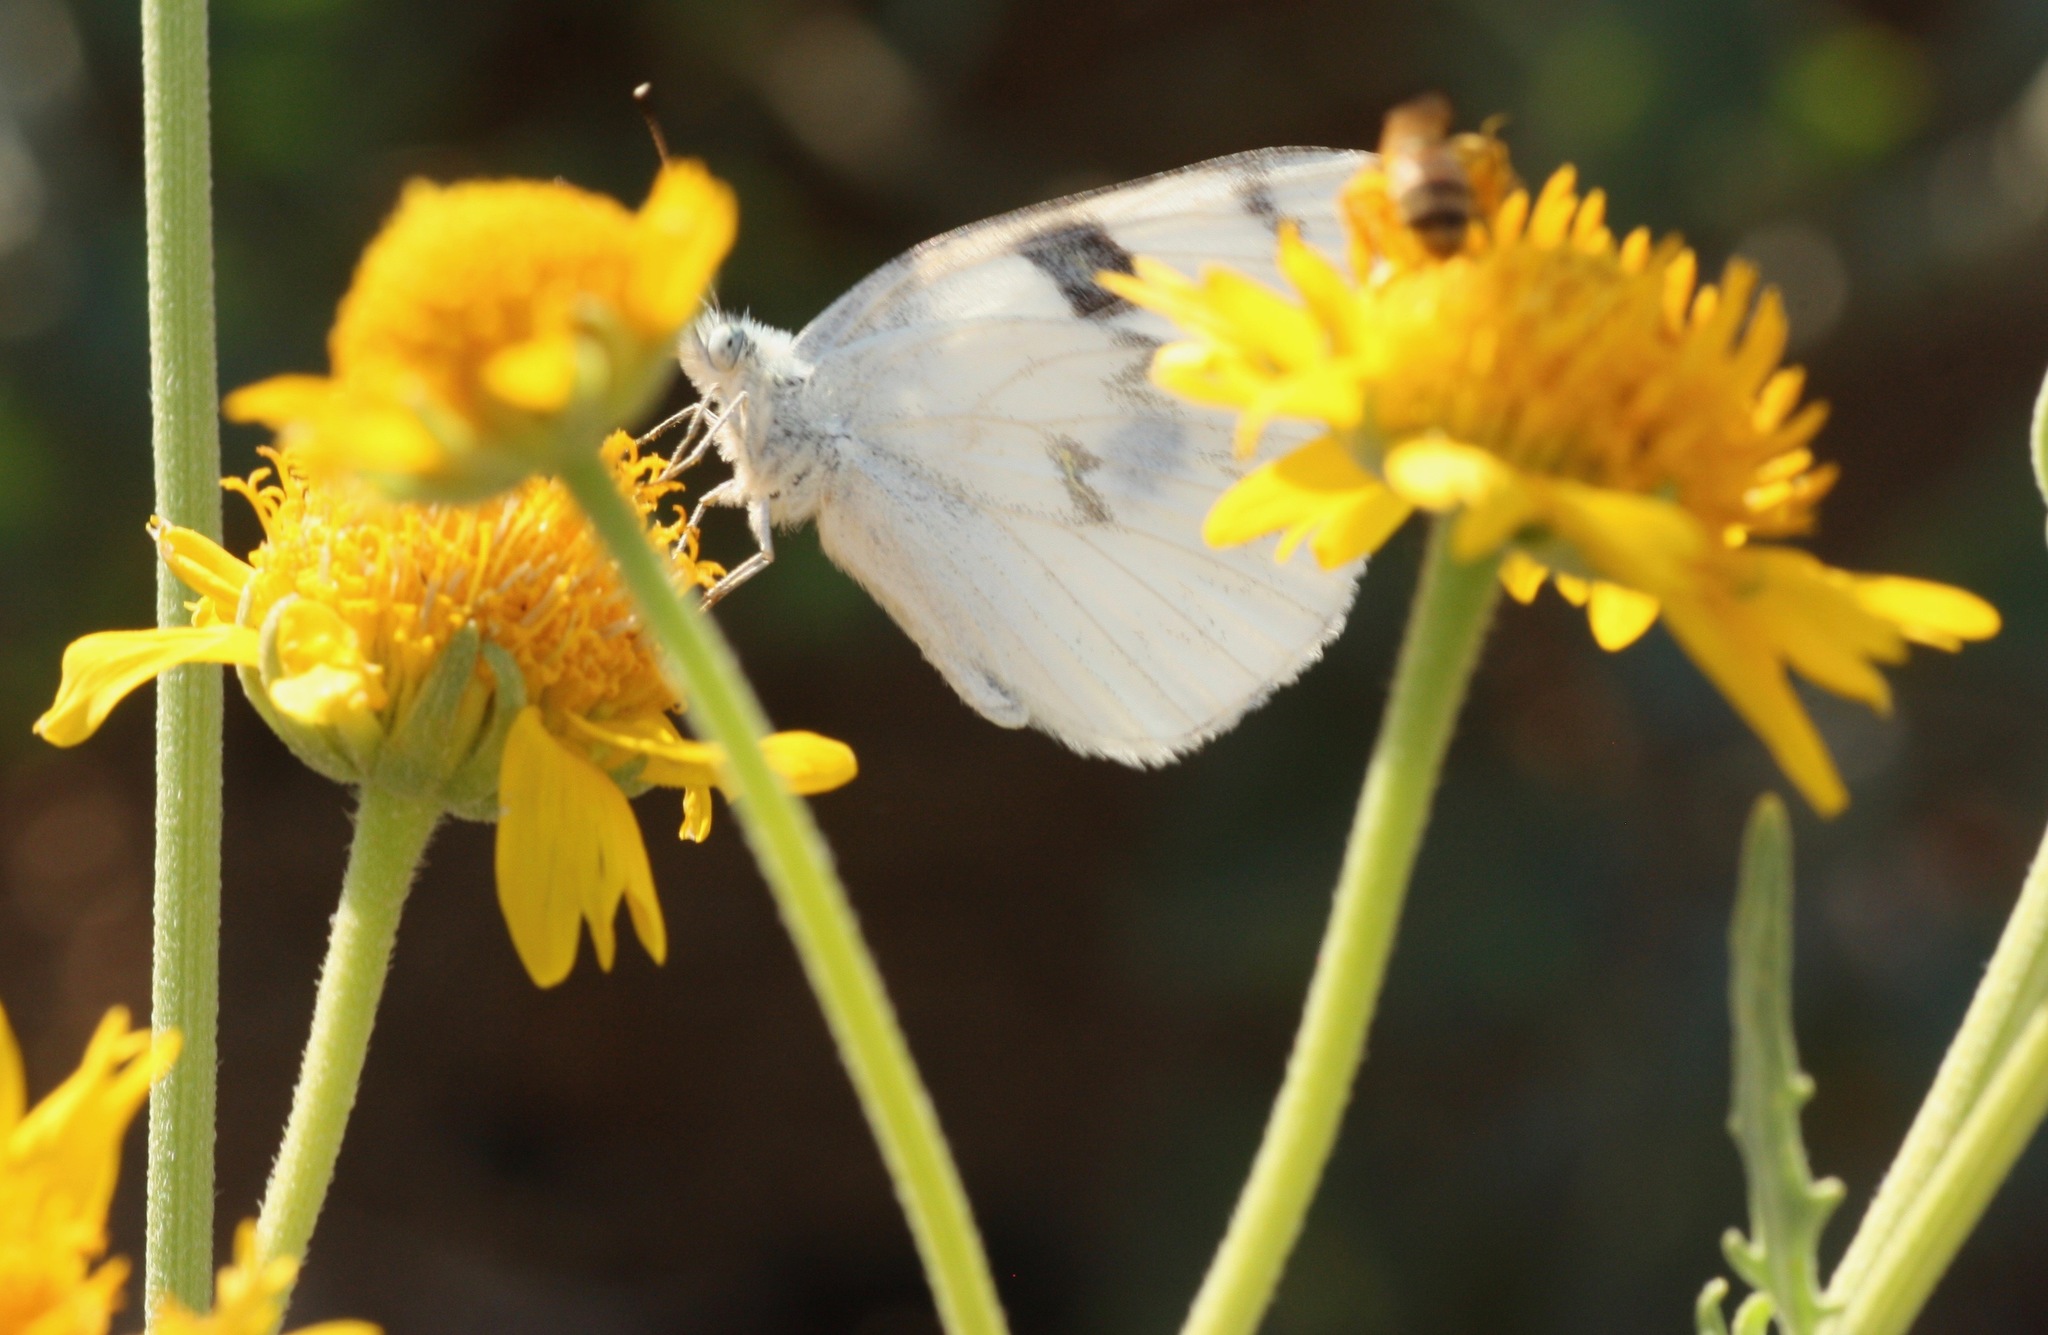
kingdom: Animalia
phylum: Arthropoda
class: Insecta
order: Lepidoptera
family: Pieridae
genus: Pontia
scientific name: Pontia protodice
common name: Checkered white
